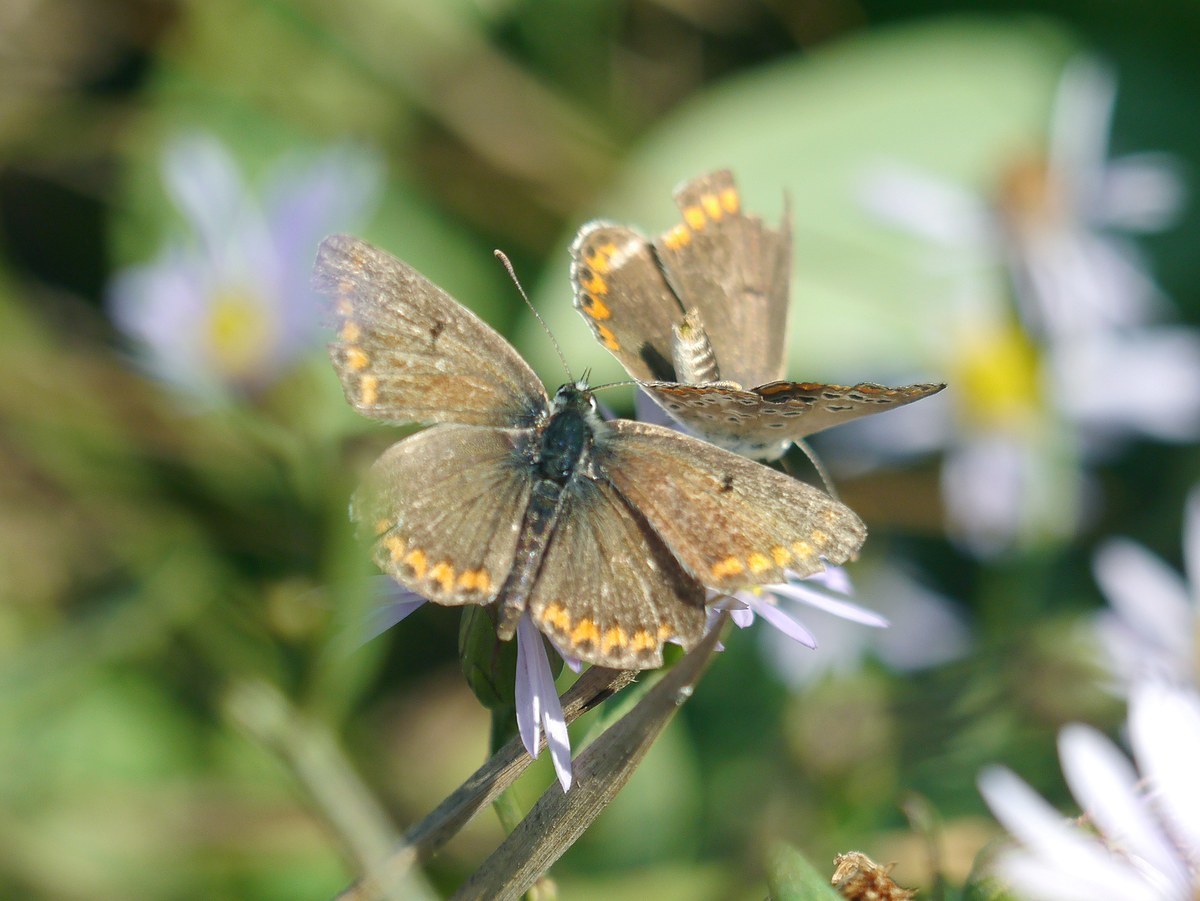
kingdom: Animalia
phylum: Arthropoda
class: Insecta
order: Lepidoptera
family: Lycaenidae
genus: Aricia
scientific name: Aricia agestis
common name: Brown argus
